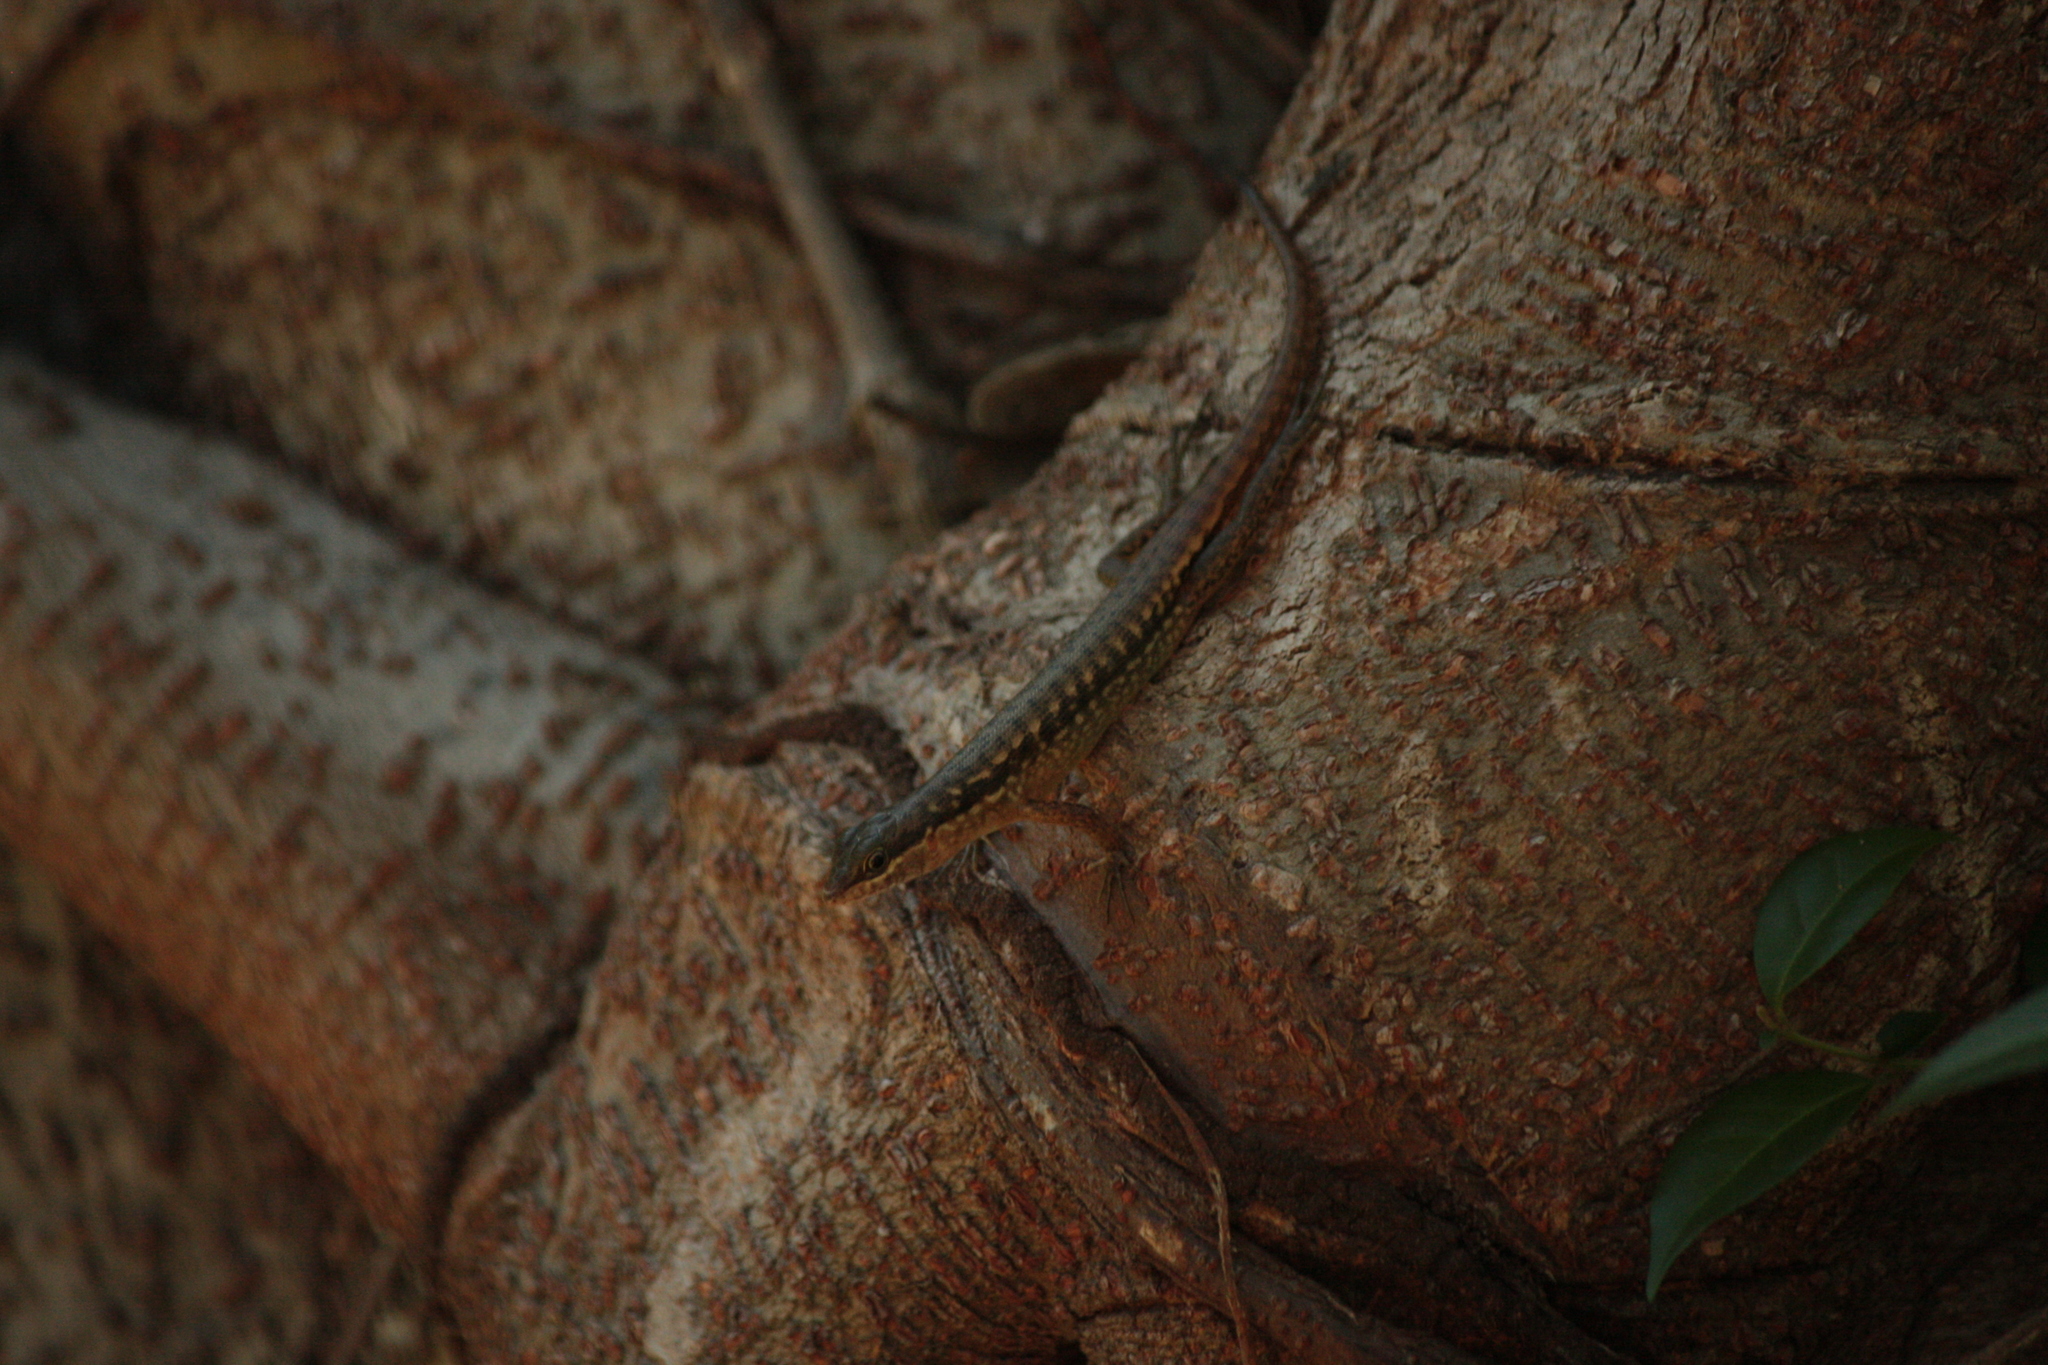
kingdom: Animalia
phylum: Chordata
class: Squamata
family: Scincidae
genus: Sphenomorphus
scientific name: Sphenomorphus melanopogon
